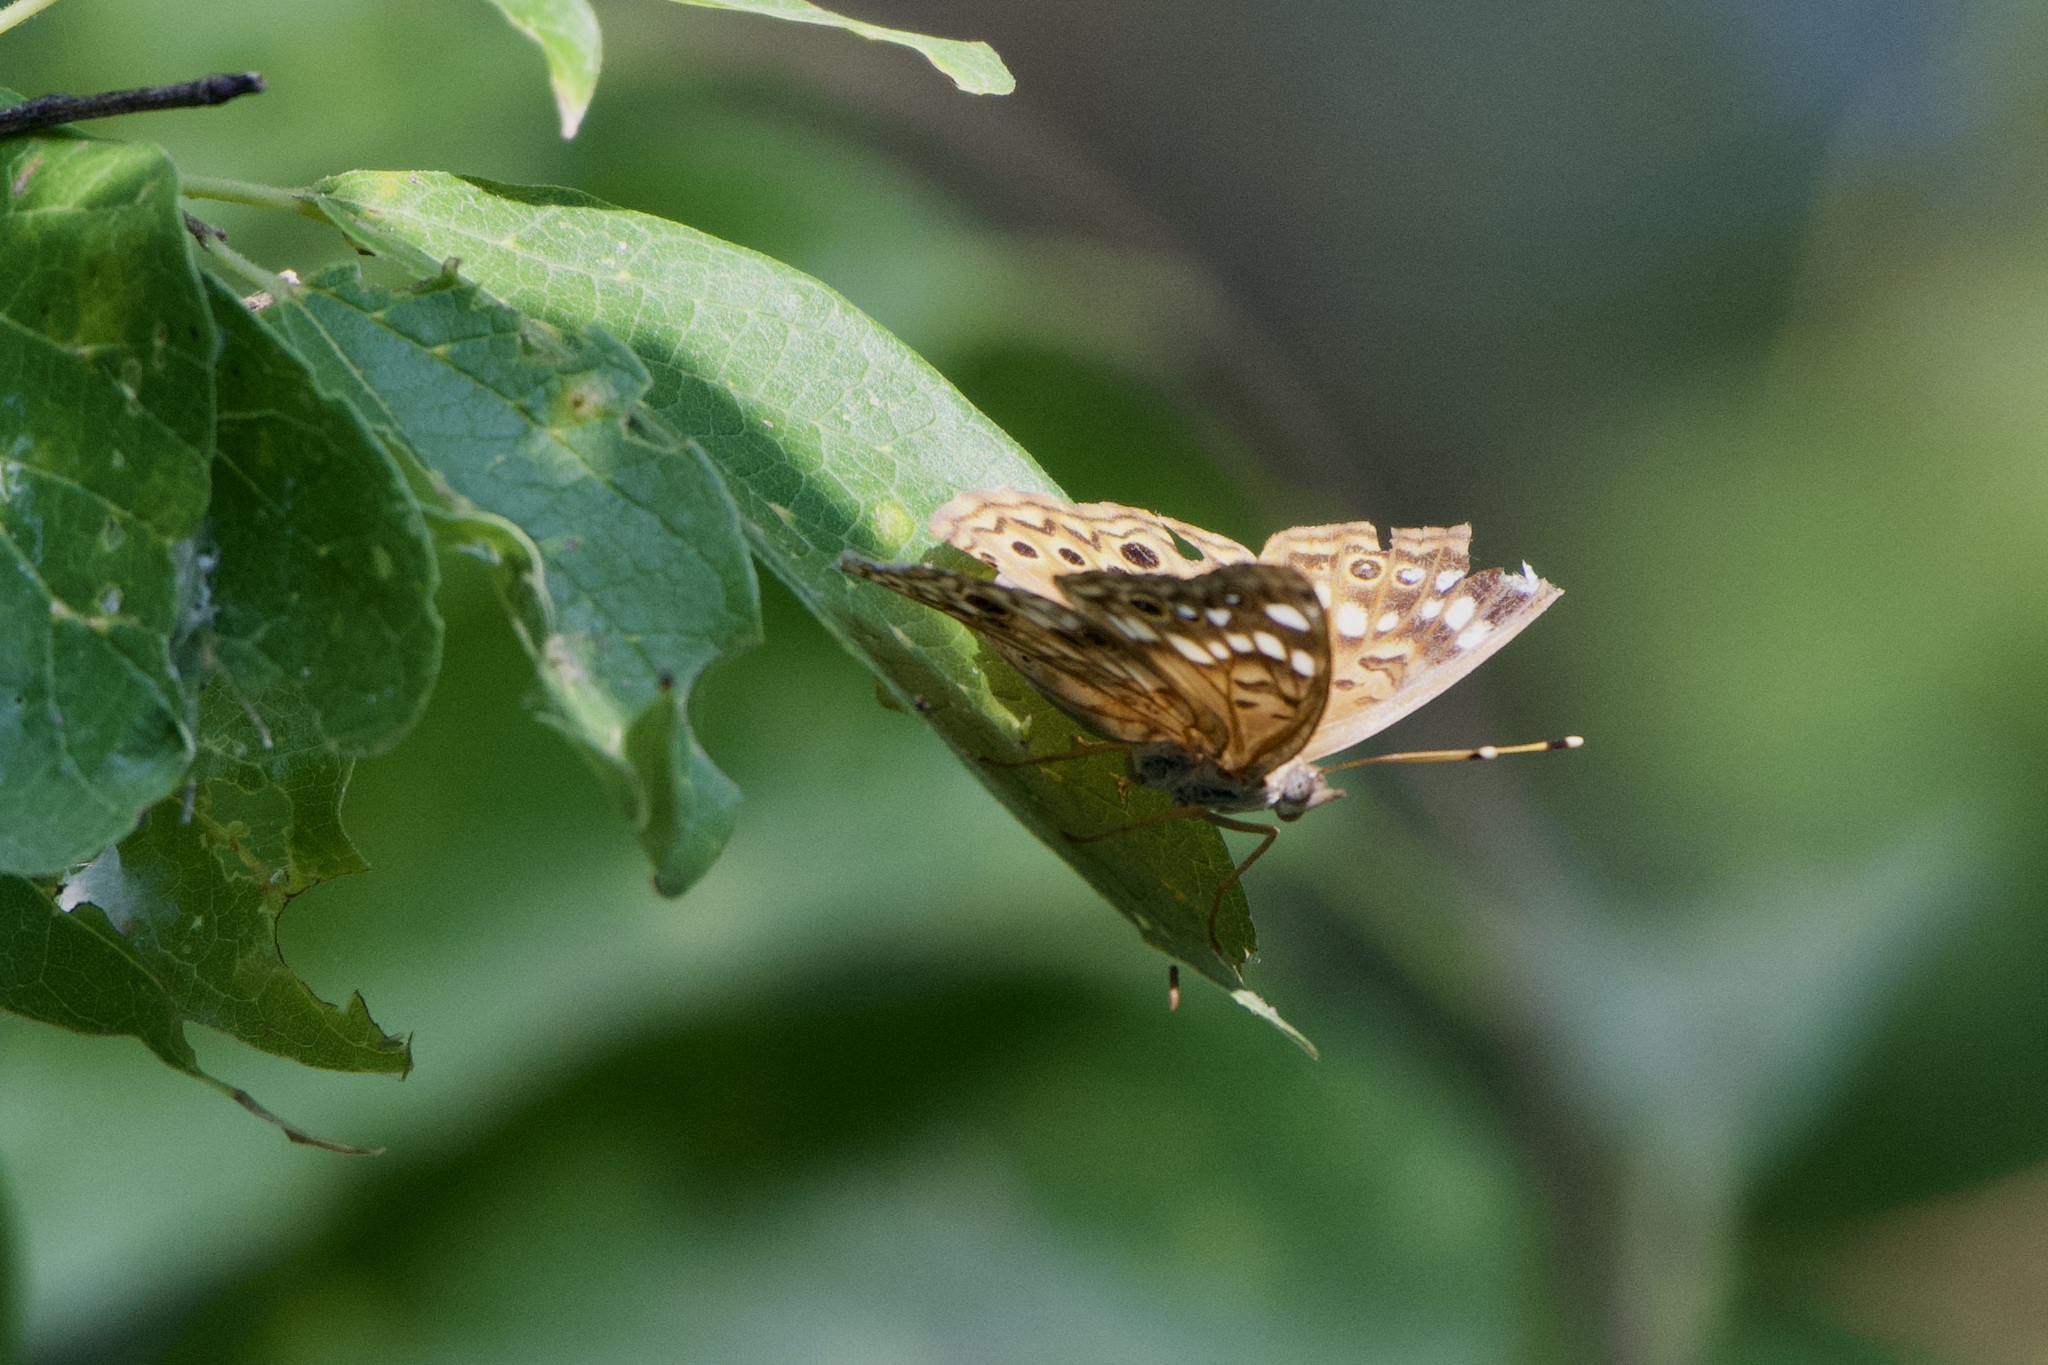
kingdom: Animalia
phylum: Arthropoda
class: Insecta
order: Lepidoptera
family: Nymphalidae
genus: Asterocampa
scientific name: Asterocampa celtis
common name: Hackberry emperor
